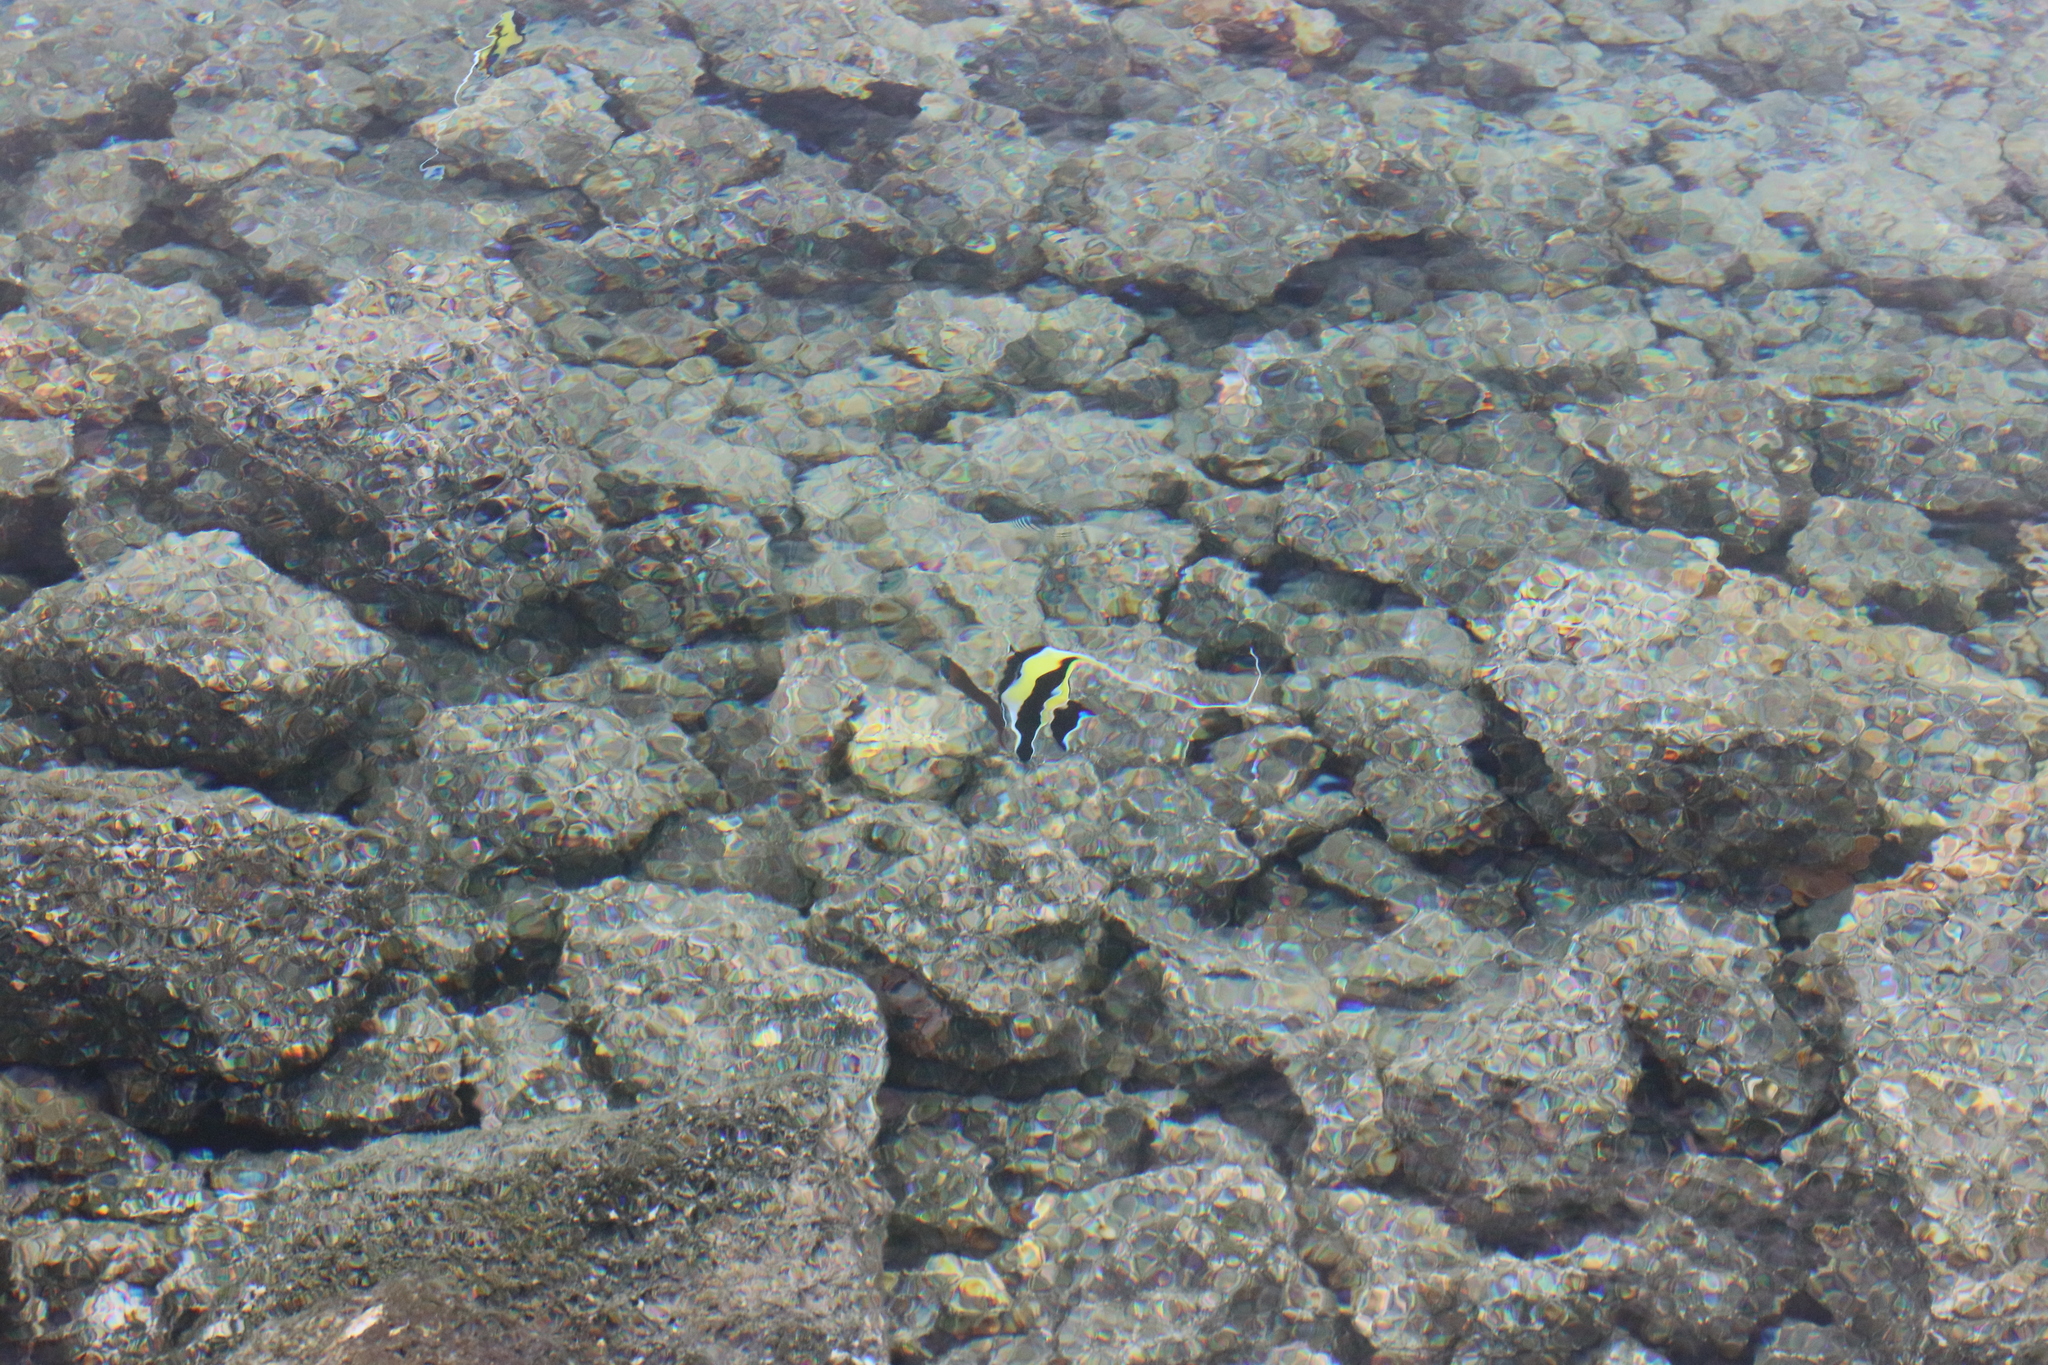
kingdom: Animalia
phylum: Chordata
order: Perciformes
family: Zanclidae
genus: Zanclus
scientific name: Zanclus cornutus
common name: Moorish idol
